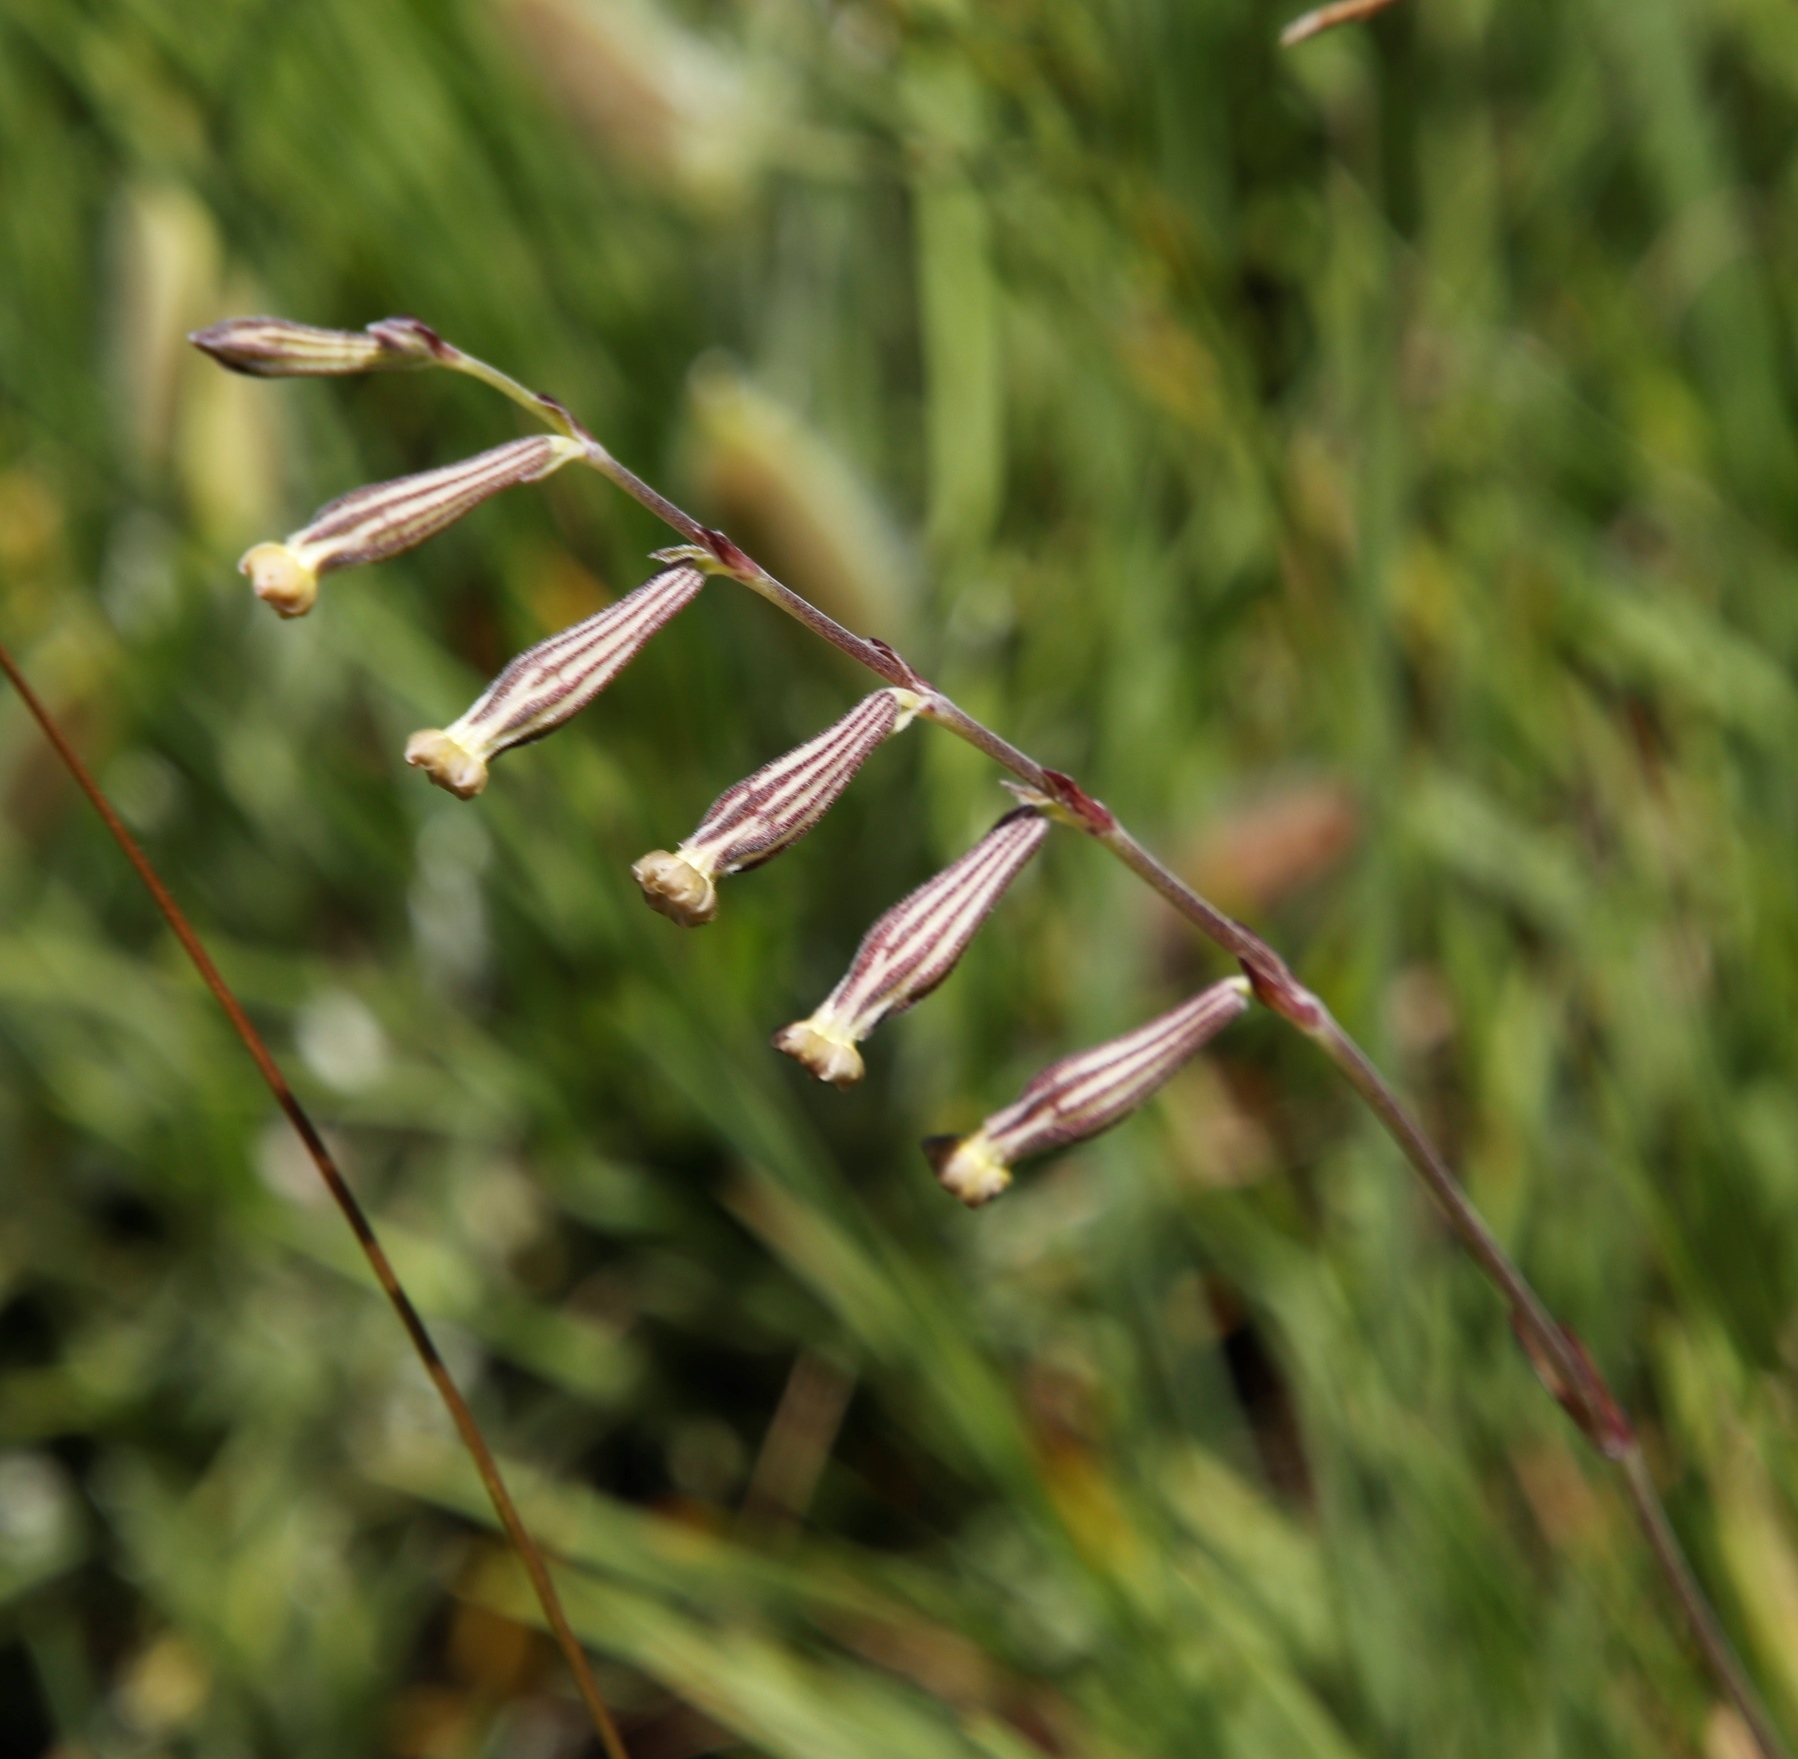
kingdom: Plantae
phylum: Tracheophyta
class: Magnoliopsida
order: Caryophyllales
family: Caryophyllaceae
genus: Silene
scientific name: Silene burchellii
